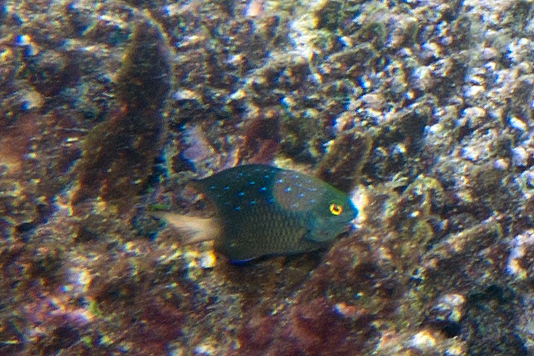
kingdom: Animalia
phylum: Chordata
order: Perciformes
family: Pomacentridae
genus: Plectroglyphidodon
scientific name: Plectroglyphidodon lacrymatus
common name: Jewel damsel
